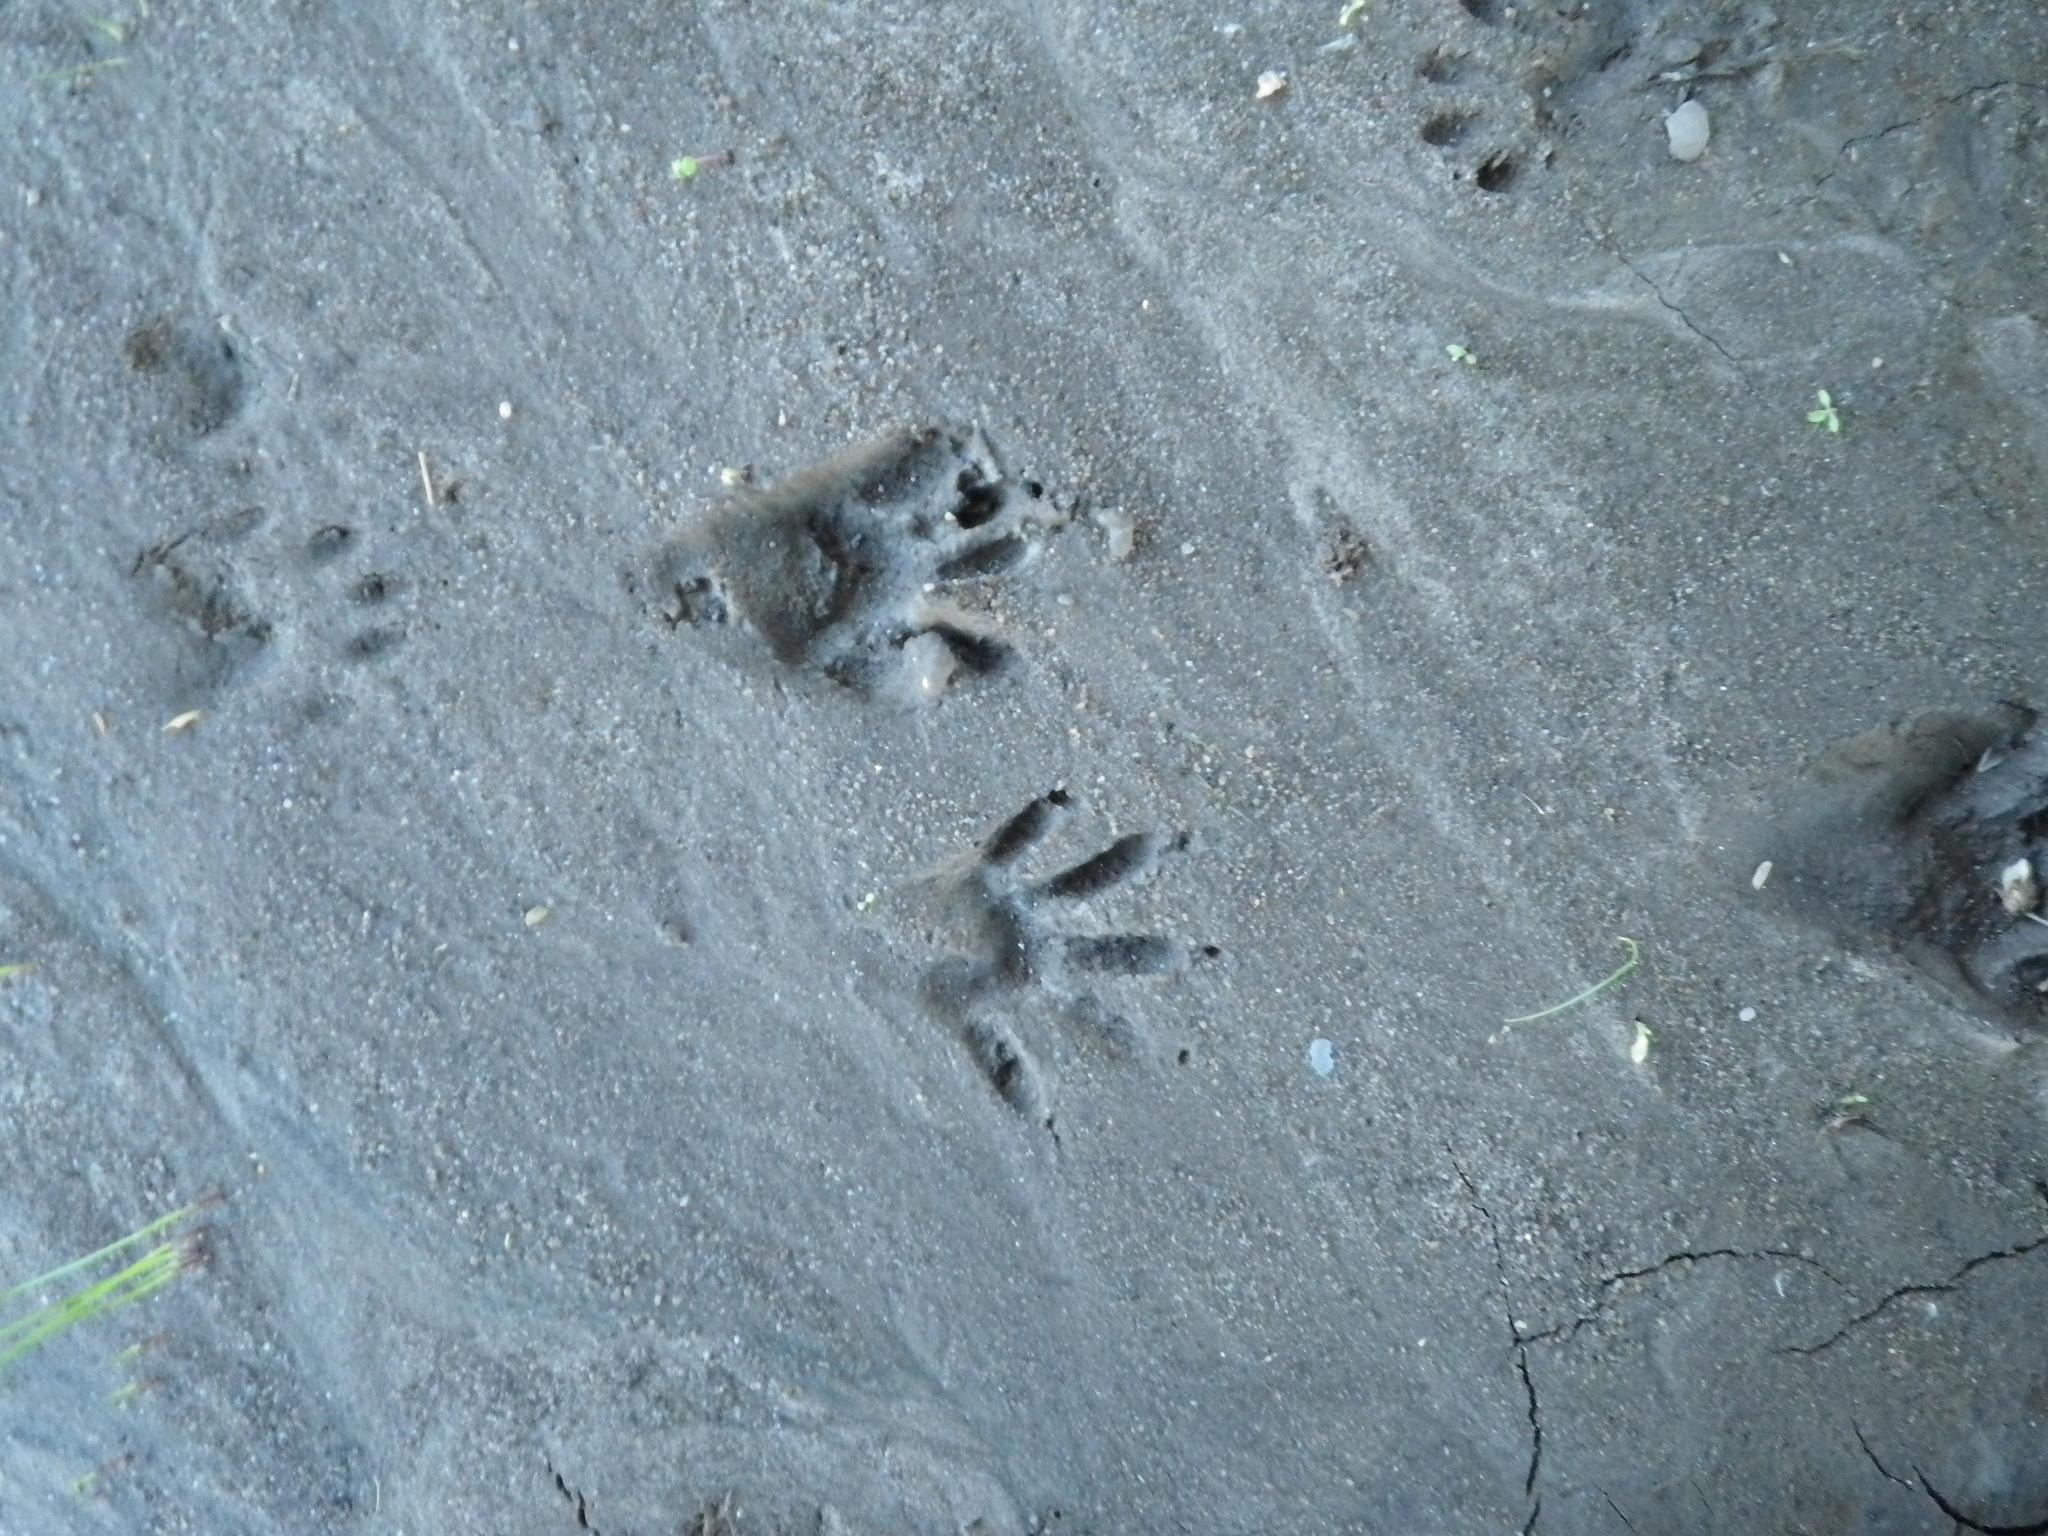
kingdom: Animalia
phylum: Chordata
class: Mammalia
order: Carnivora
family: Procyonidae
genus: Procyon
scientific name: Procyon lotor
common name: Raccoon
